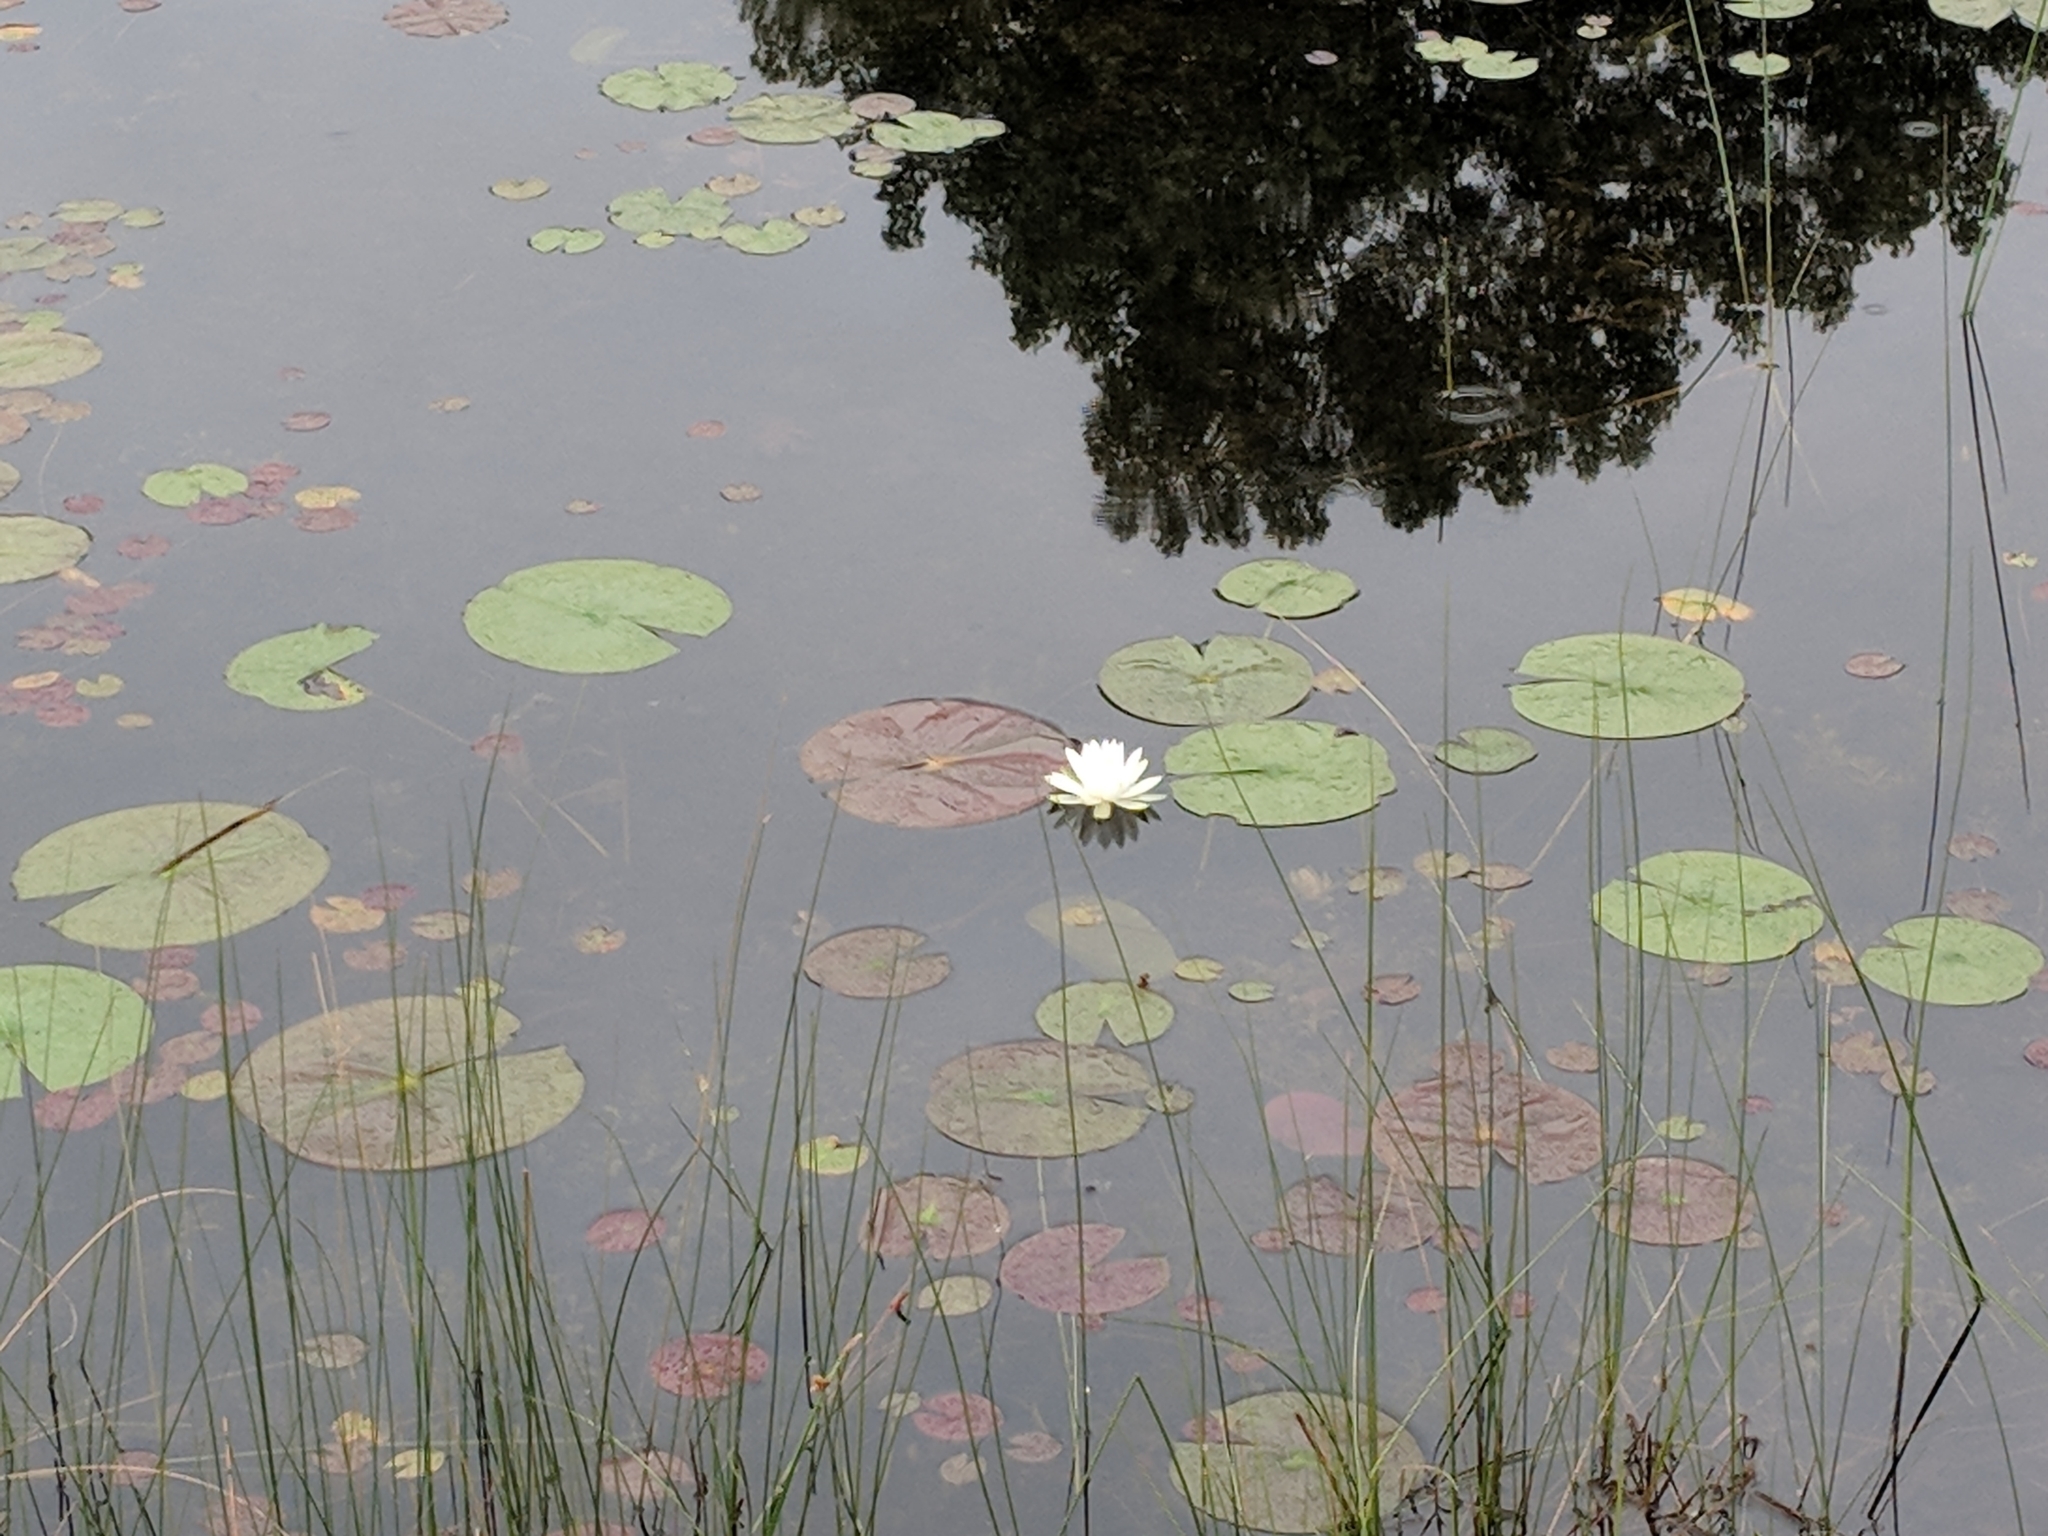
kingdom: Plantae
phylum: Tracheophyta
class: Magnoliopsida
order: Nymphaeales
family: Nymphaeaceae
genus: Nymphaea
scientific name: Nymphaea odorata
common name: Fragrant water-lily
